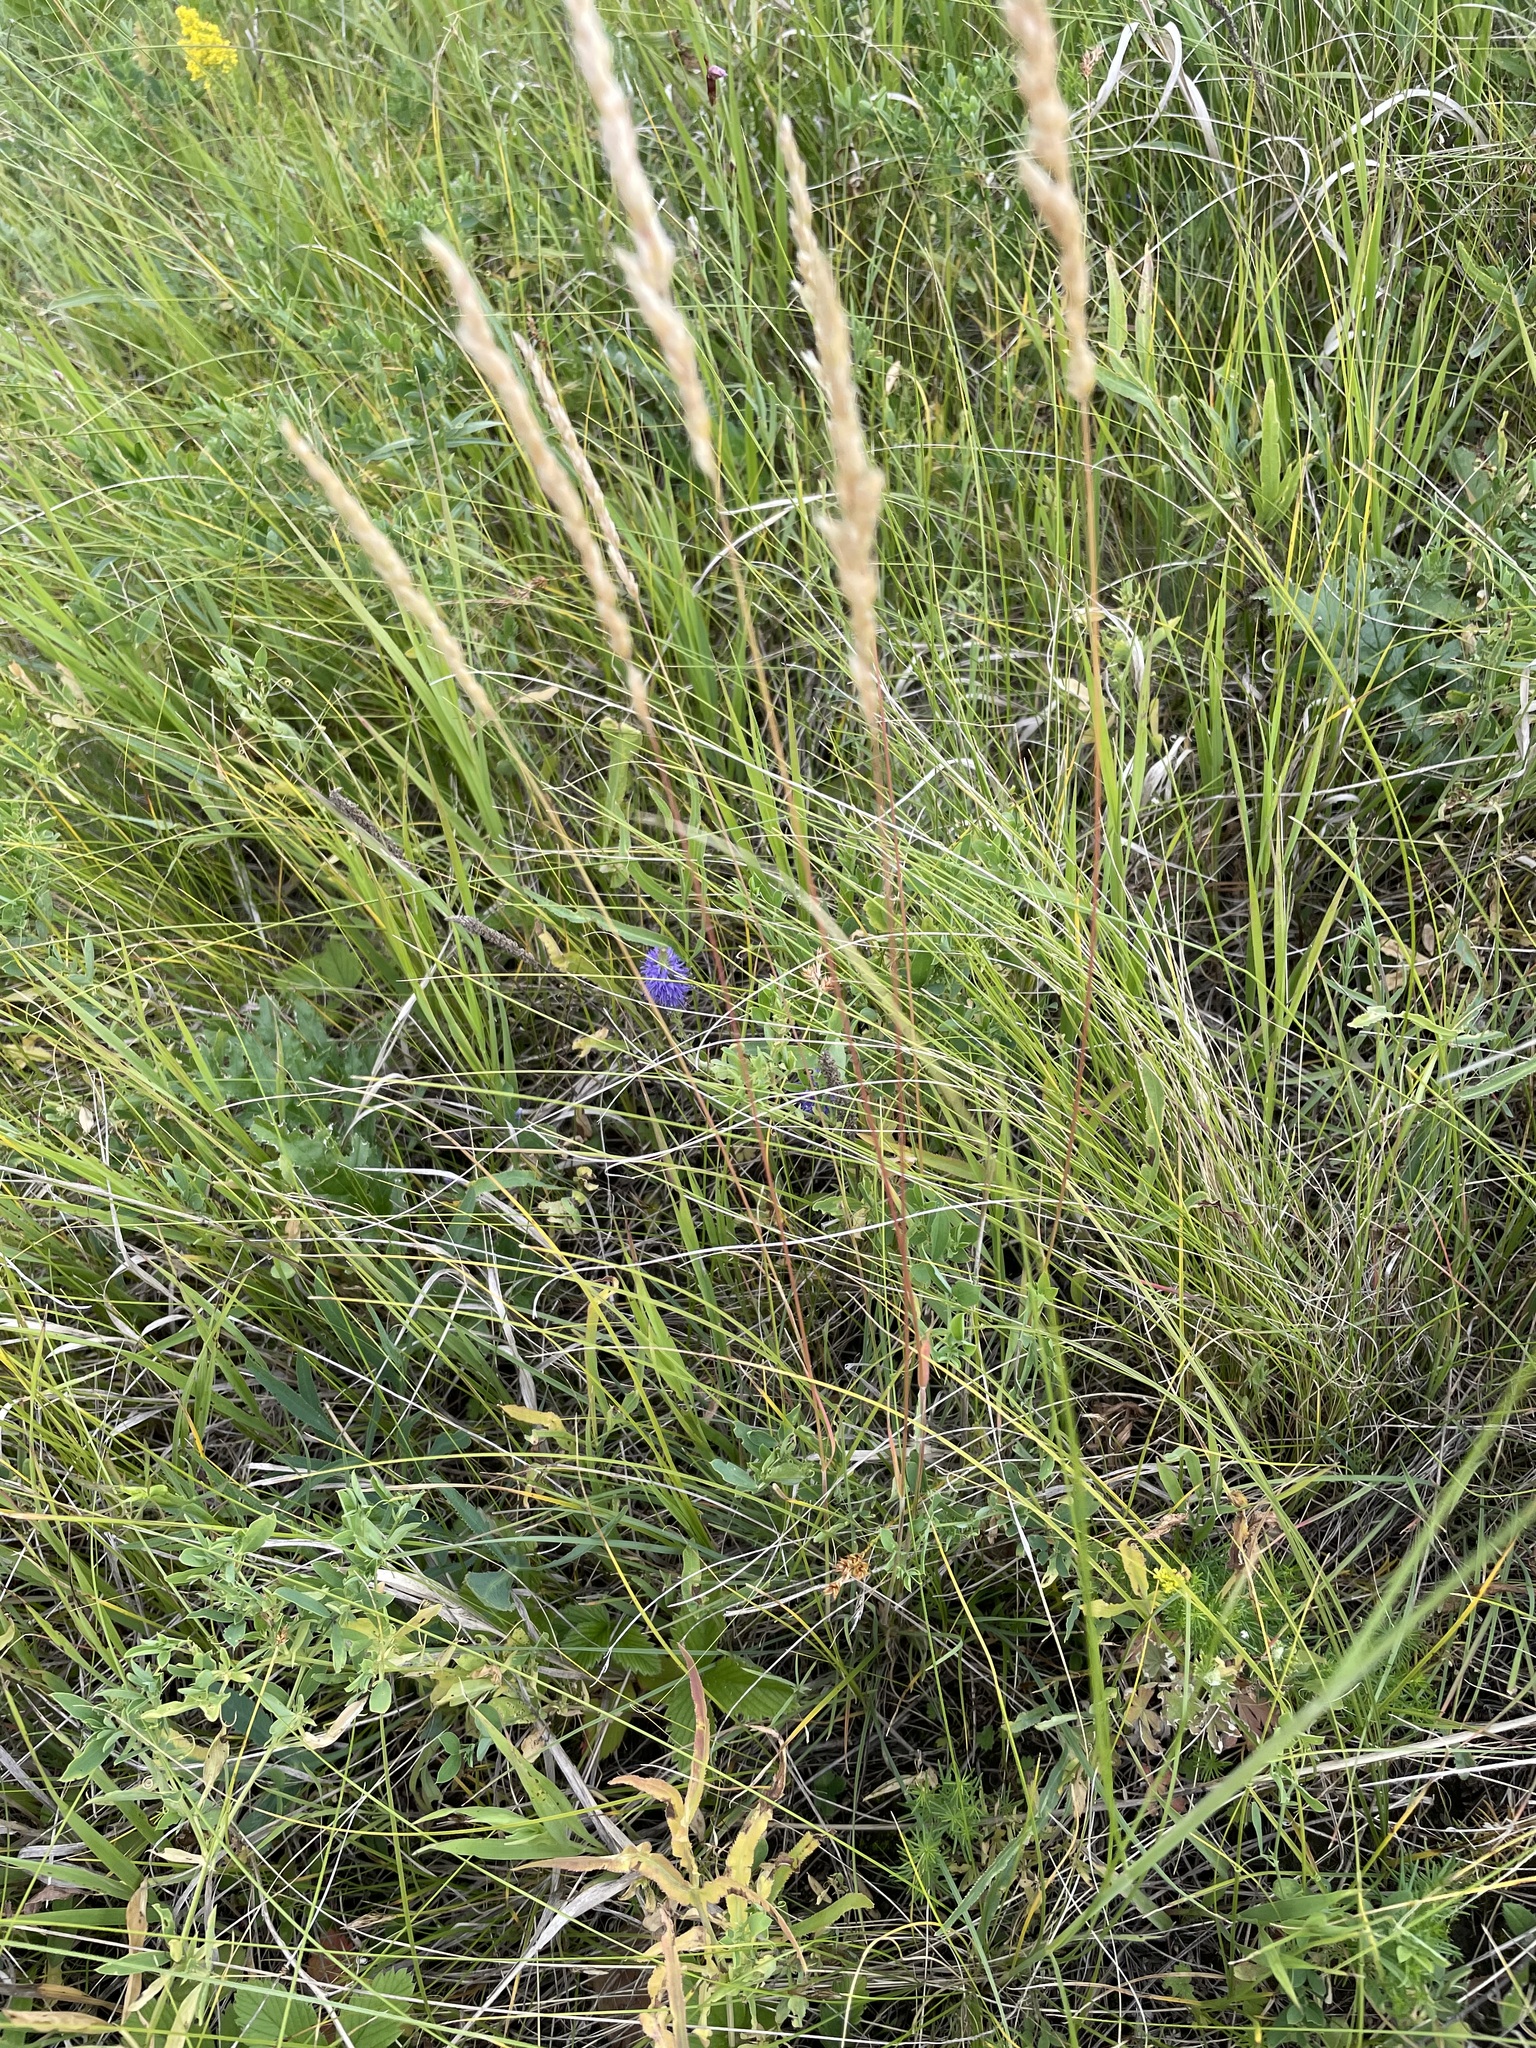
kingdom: Plantae
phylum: Tracheophyta
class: Liliopsida
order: Poales
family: Poaceae
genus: Koeleria
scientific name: Koeleria macrantha
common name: Crested hair-grass
